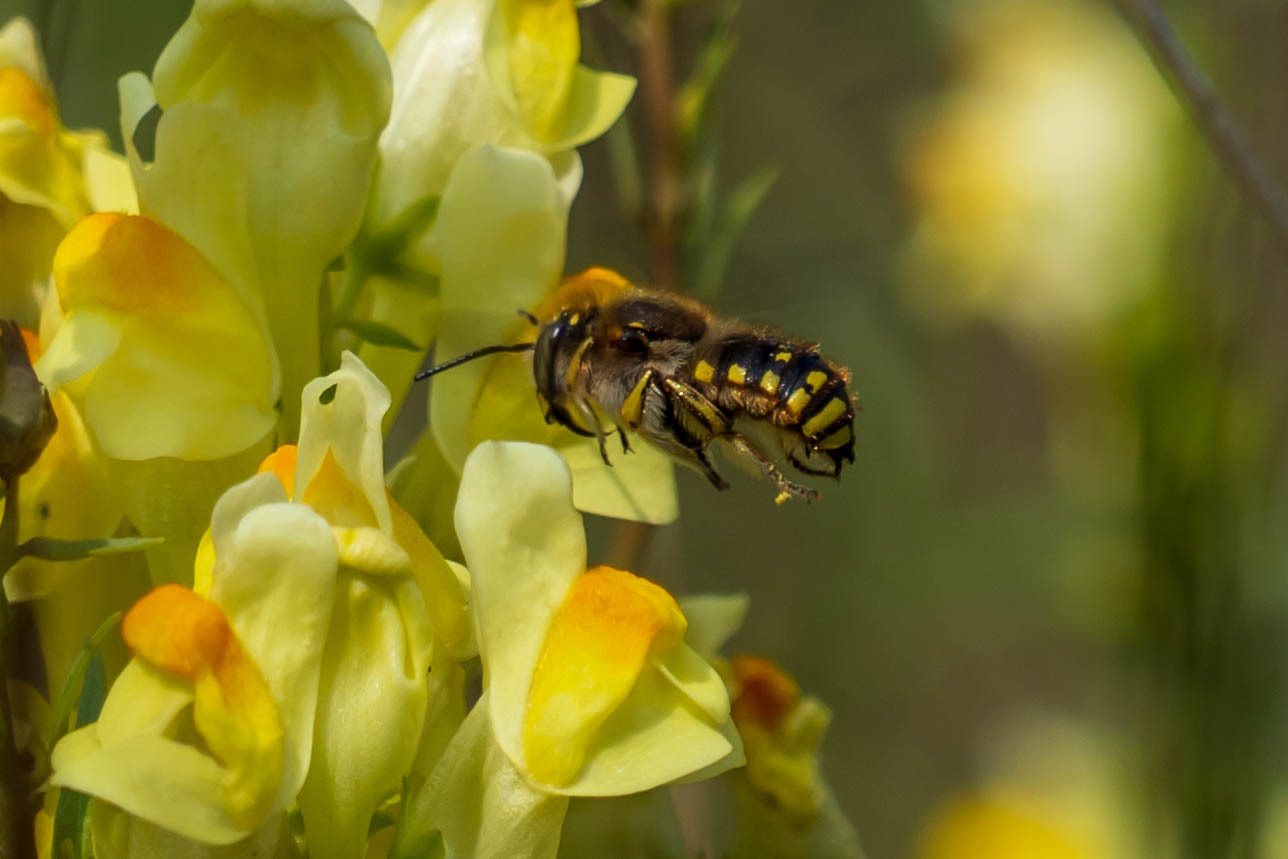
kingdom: Animalia
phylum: Arthropoda
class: Insecta
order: Hymenoptera
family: Megachilidae
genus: Anthidium
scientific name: Anthidium manicatum
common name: Wool carder bee
